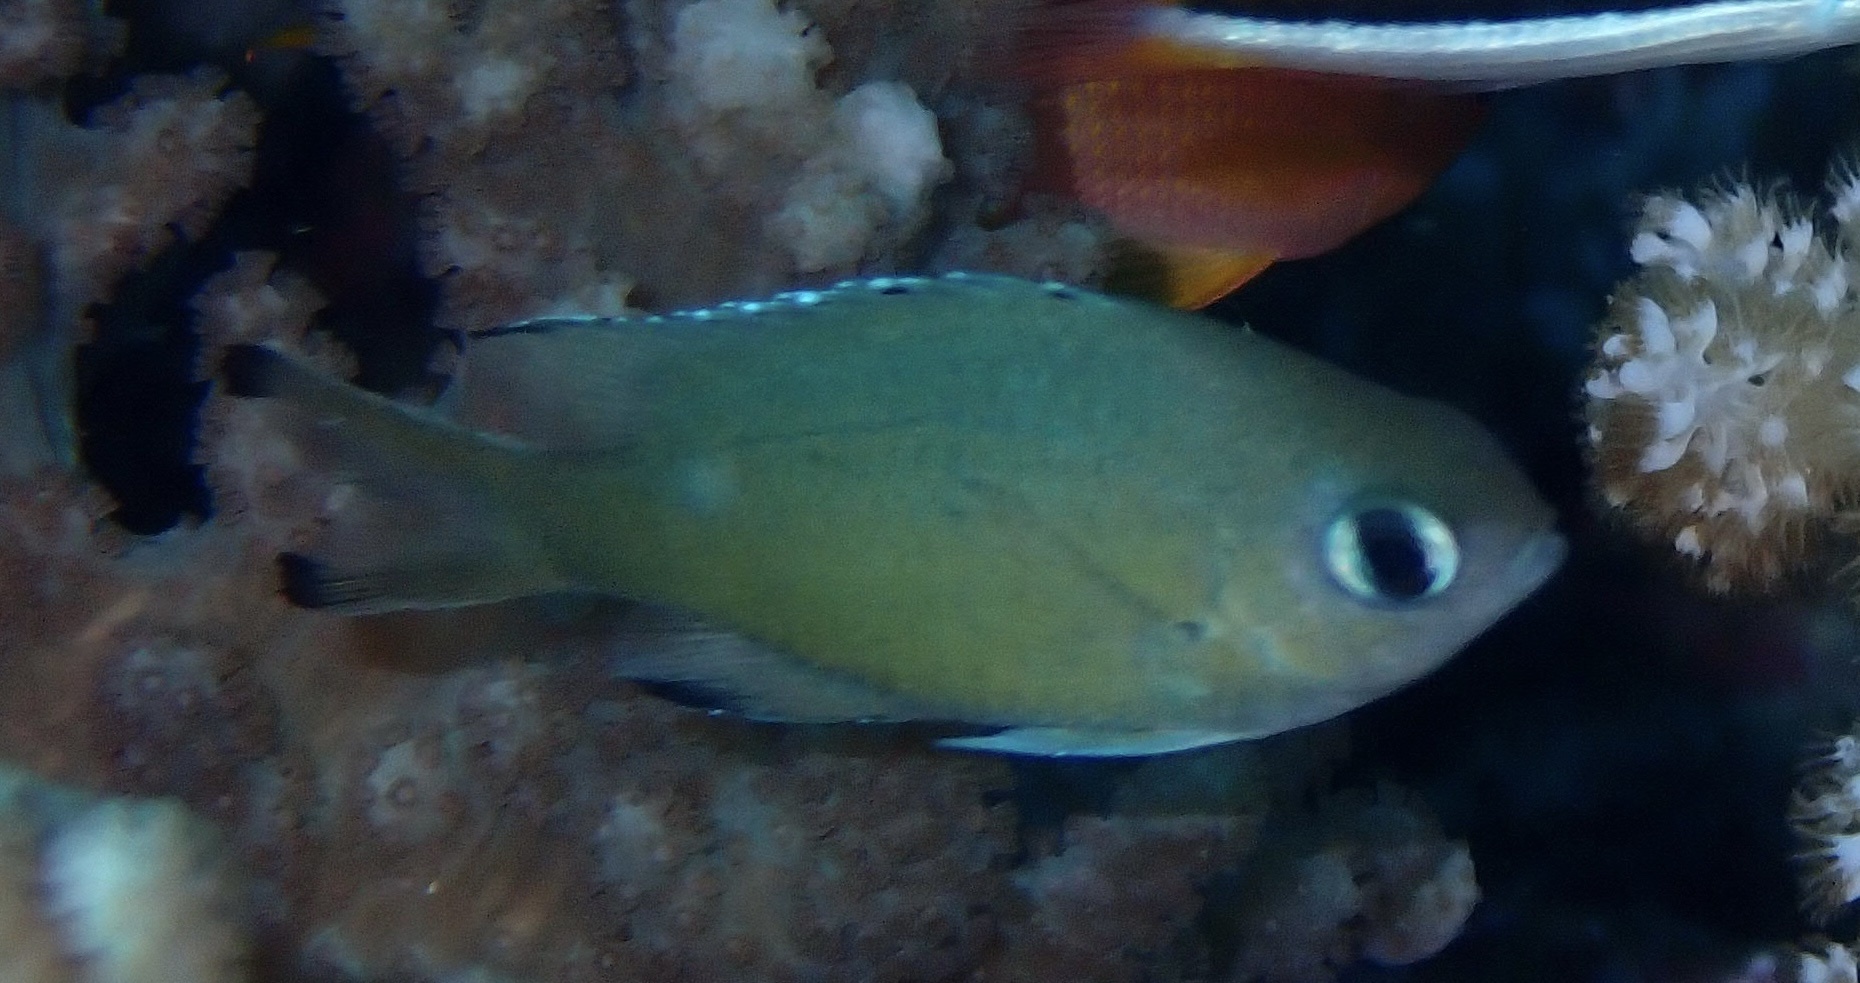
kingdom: Animalia
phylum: Chordata
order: Perciformes
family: Pomacentridae
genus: Chromis
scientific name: Chromis lepidolepis
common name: Scaly chromis
